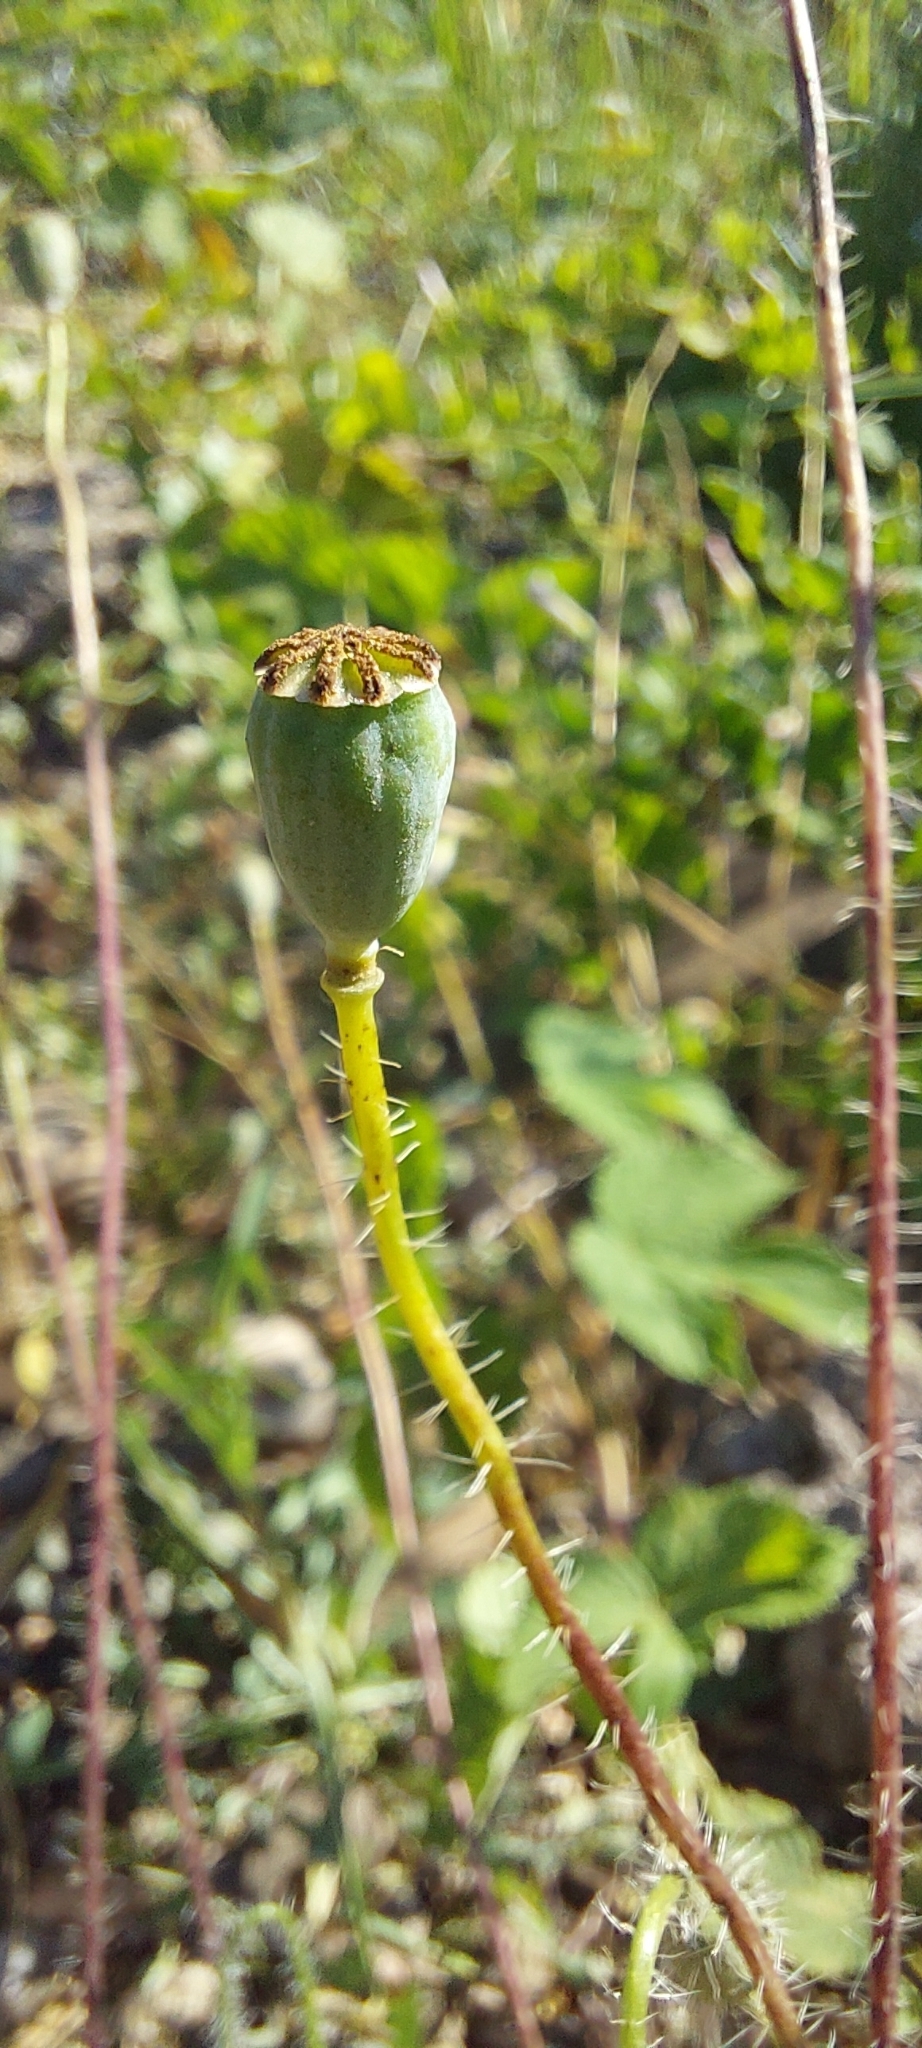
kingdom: Plantae
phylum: Tracheophyta
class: Magnoliopsida
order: Ranunculales
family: Papaveraceae
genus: Papaver
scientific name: Papaver rhoeas
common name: Corn poppy
